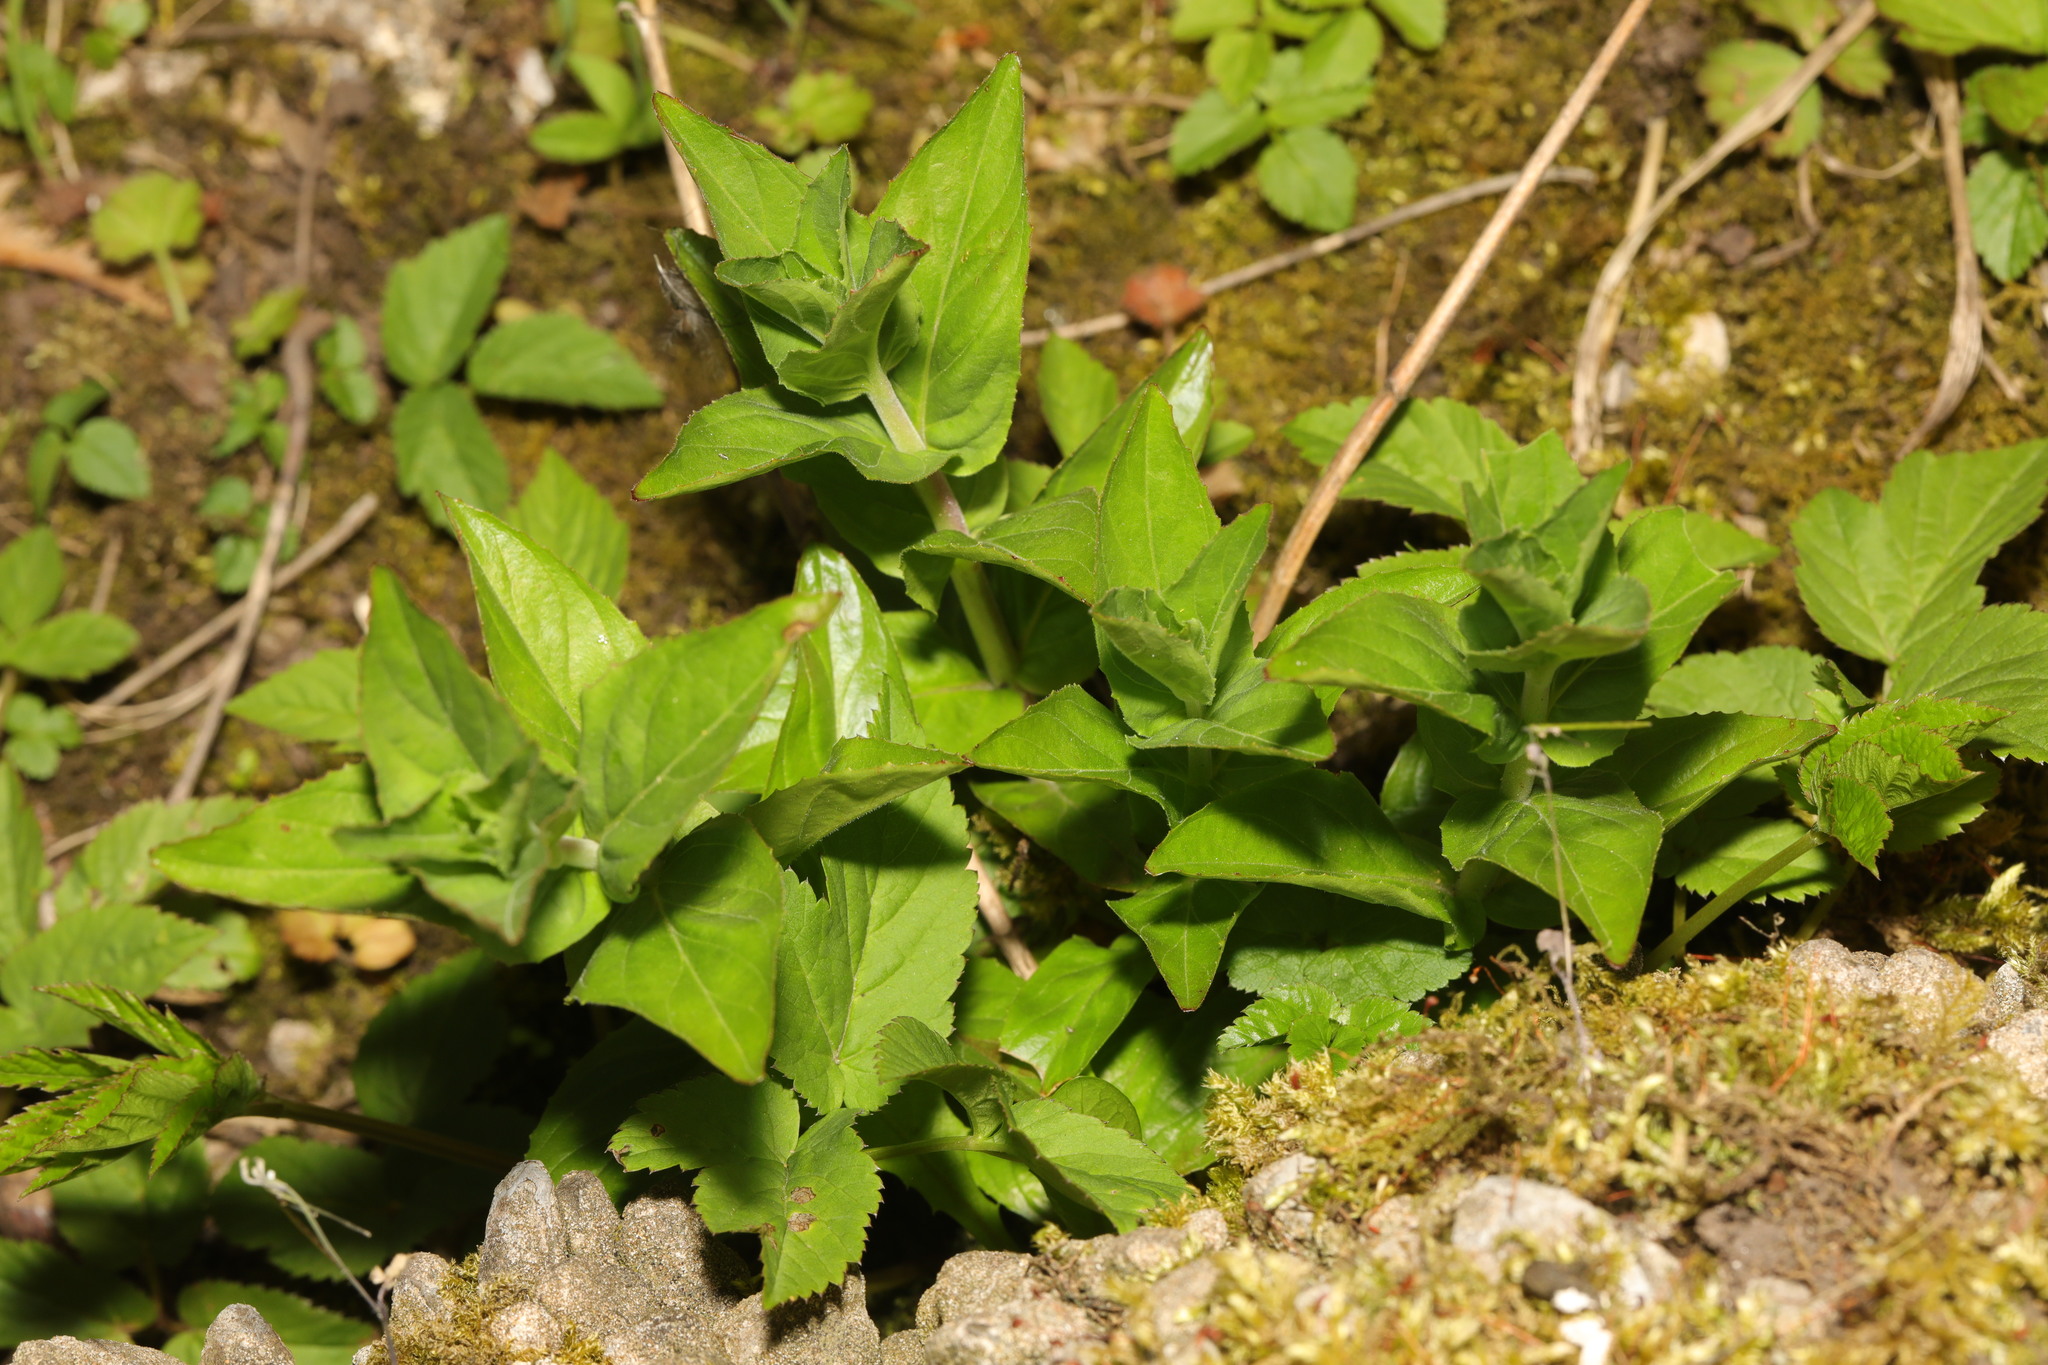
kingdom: Plantae
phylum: Tracheophyta
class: Magnoliopsida
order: Malpighiales
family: Euphorbiaceae
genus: Mercurialis
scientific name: Mercurialis perennis
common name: Dog mercury
